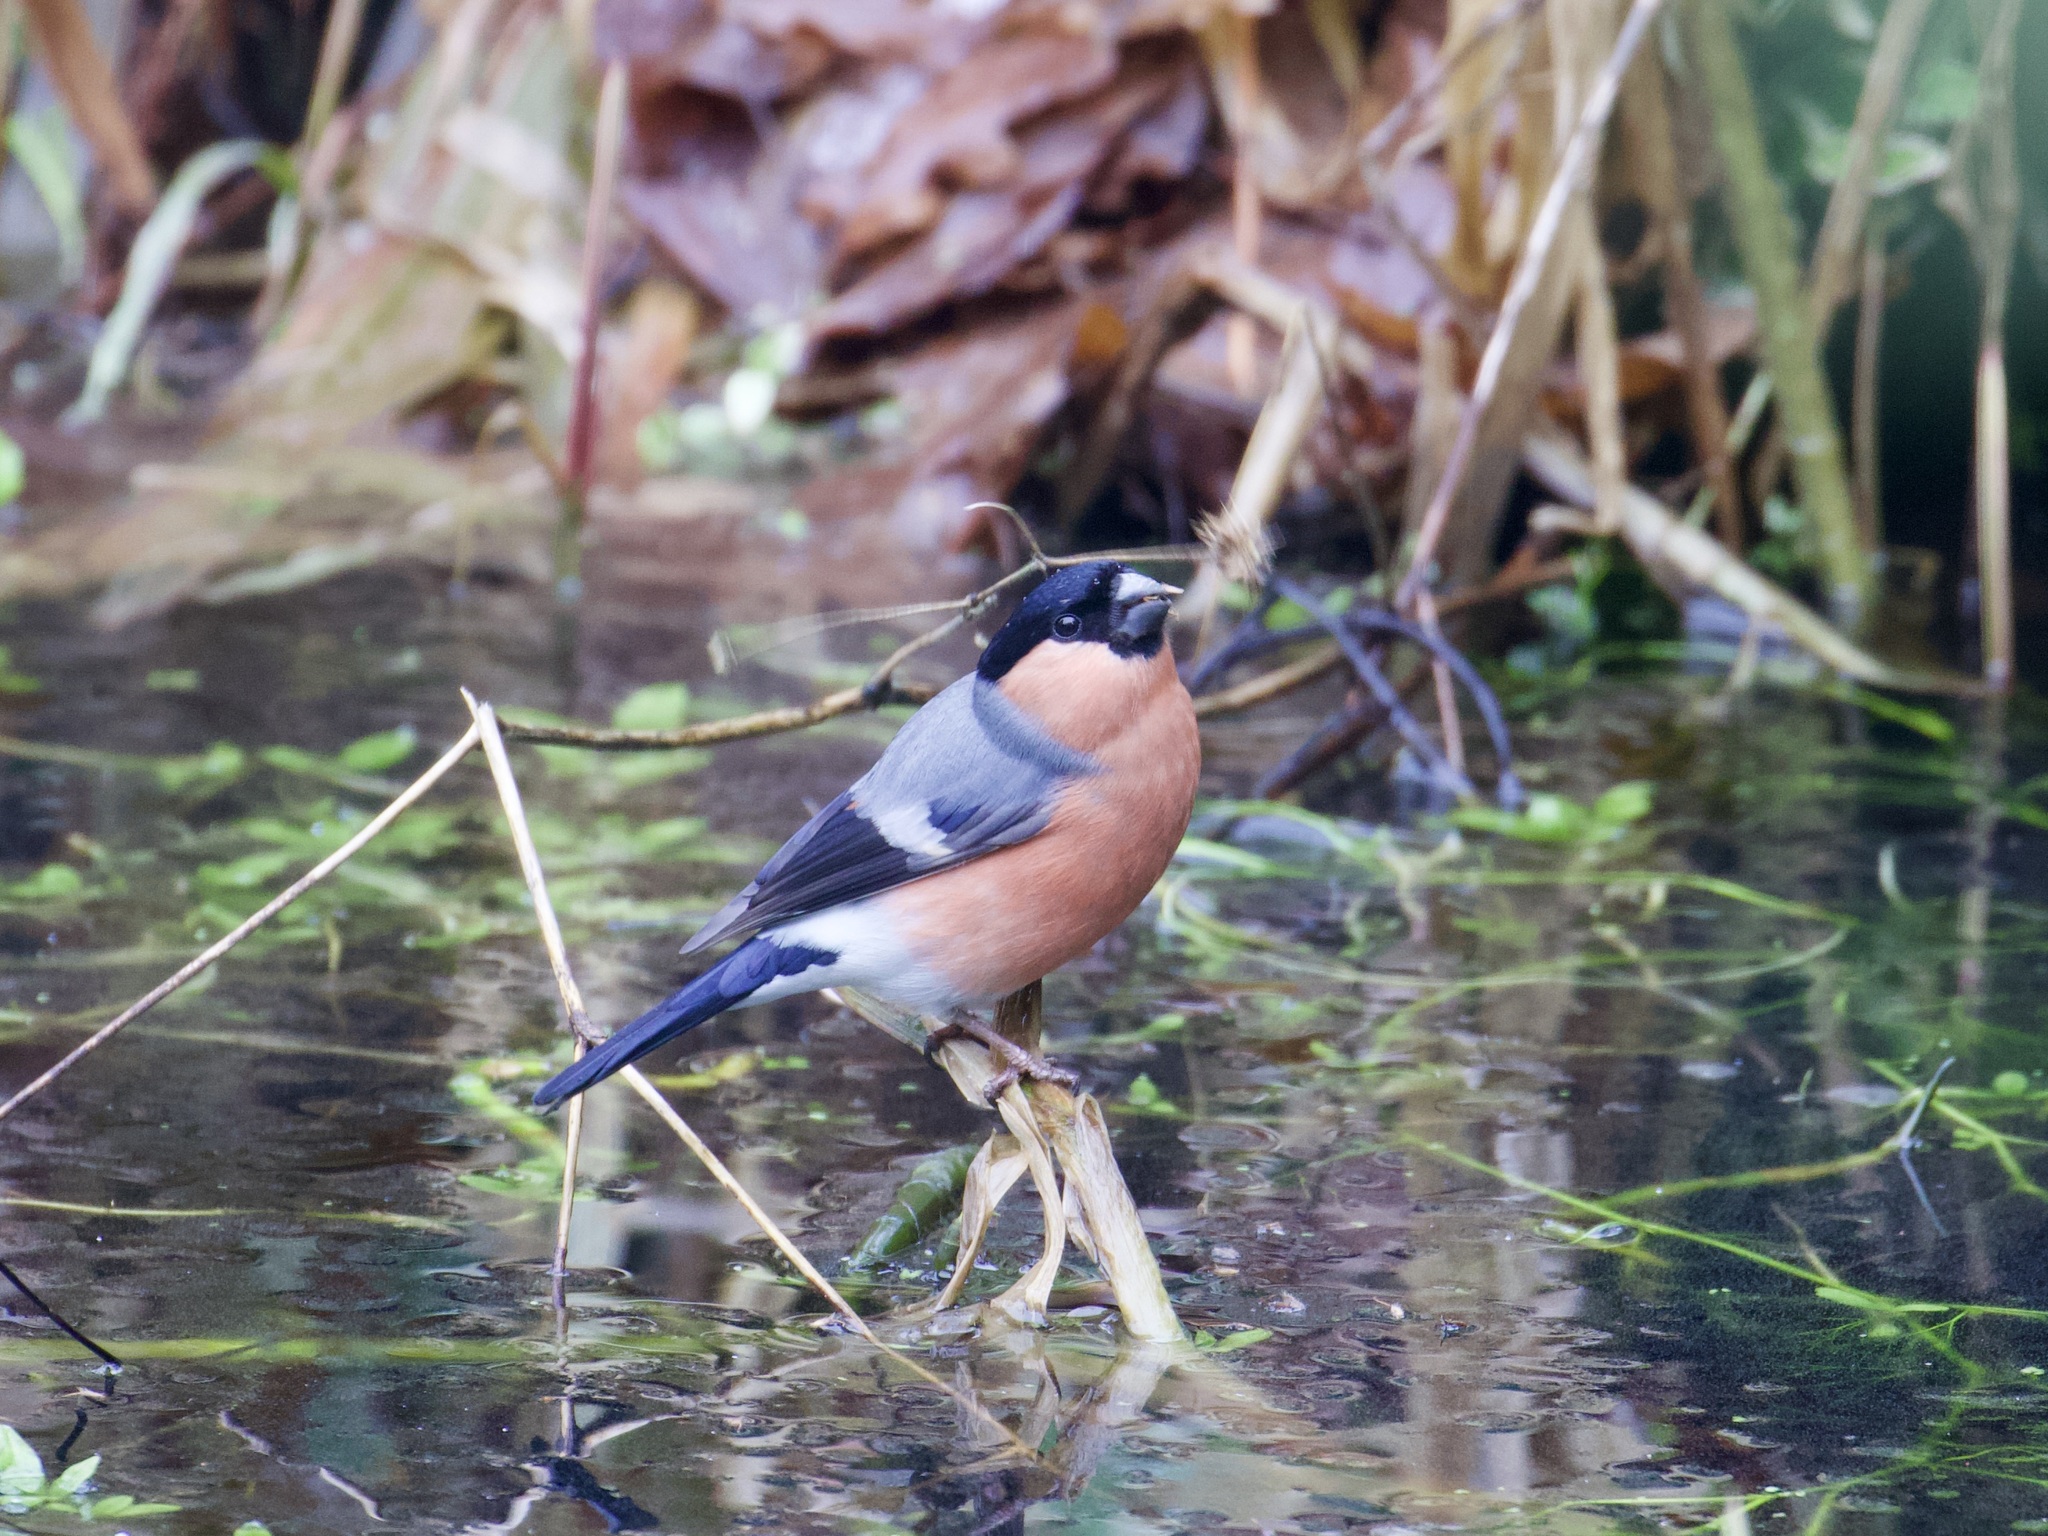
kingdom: Animalia
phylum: Chordata
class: Aves
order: Passeriformes
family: Fringillidae
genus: Pyrrhula
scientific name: Pyrrhula pyrrhula
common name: Eurasian bullfinch
